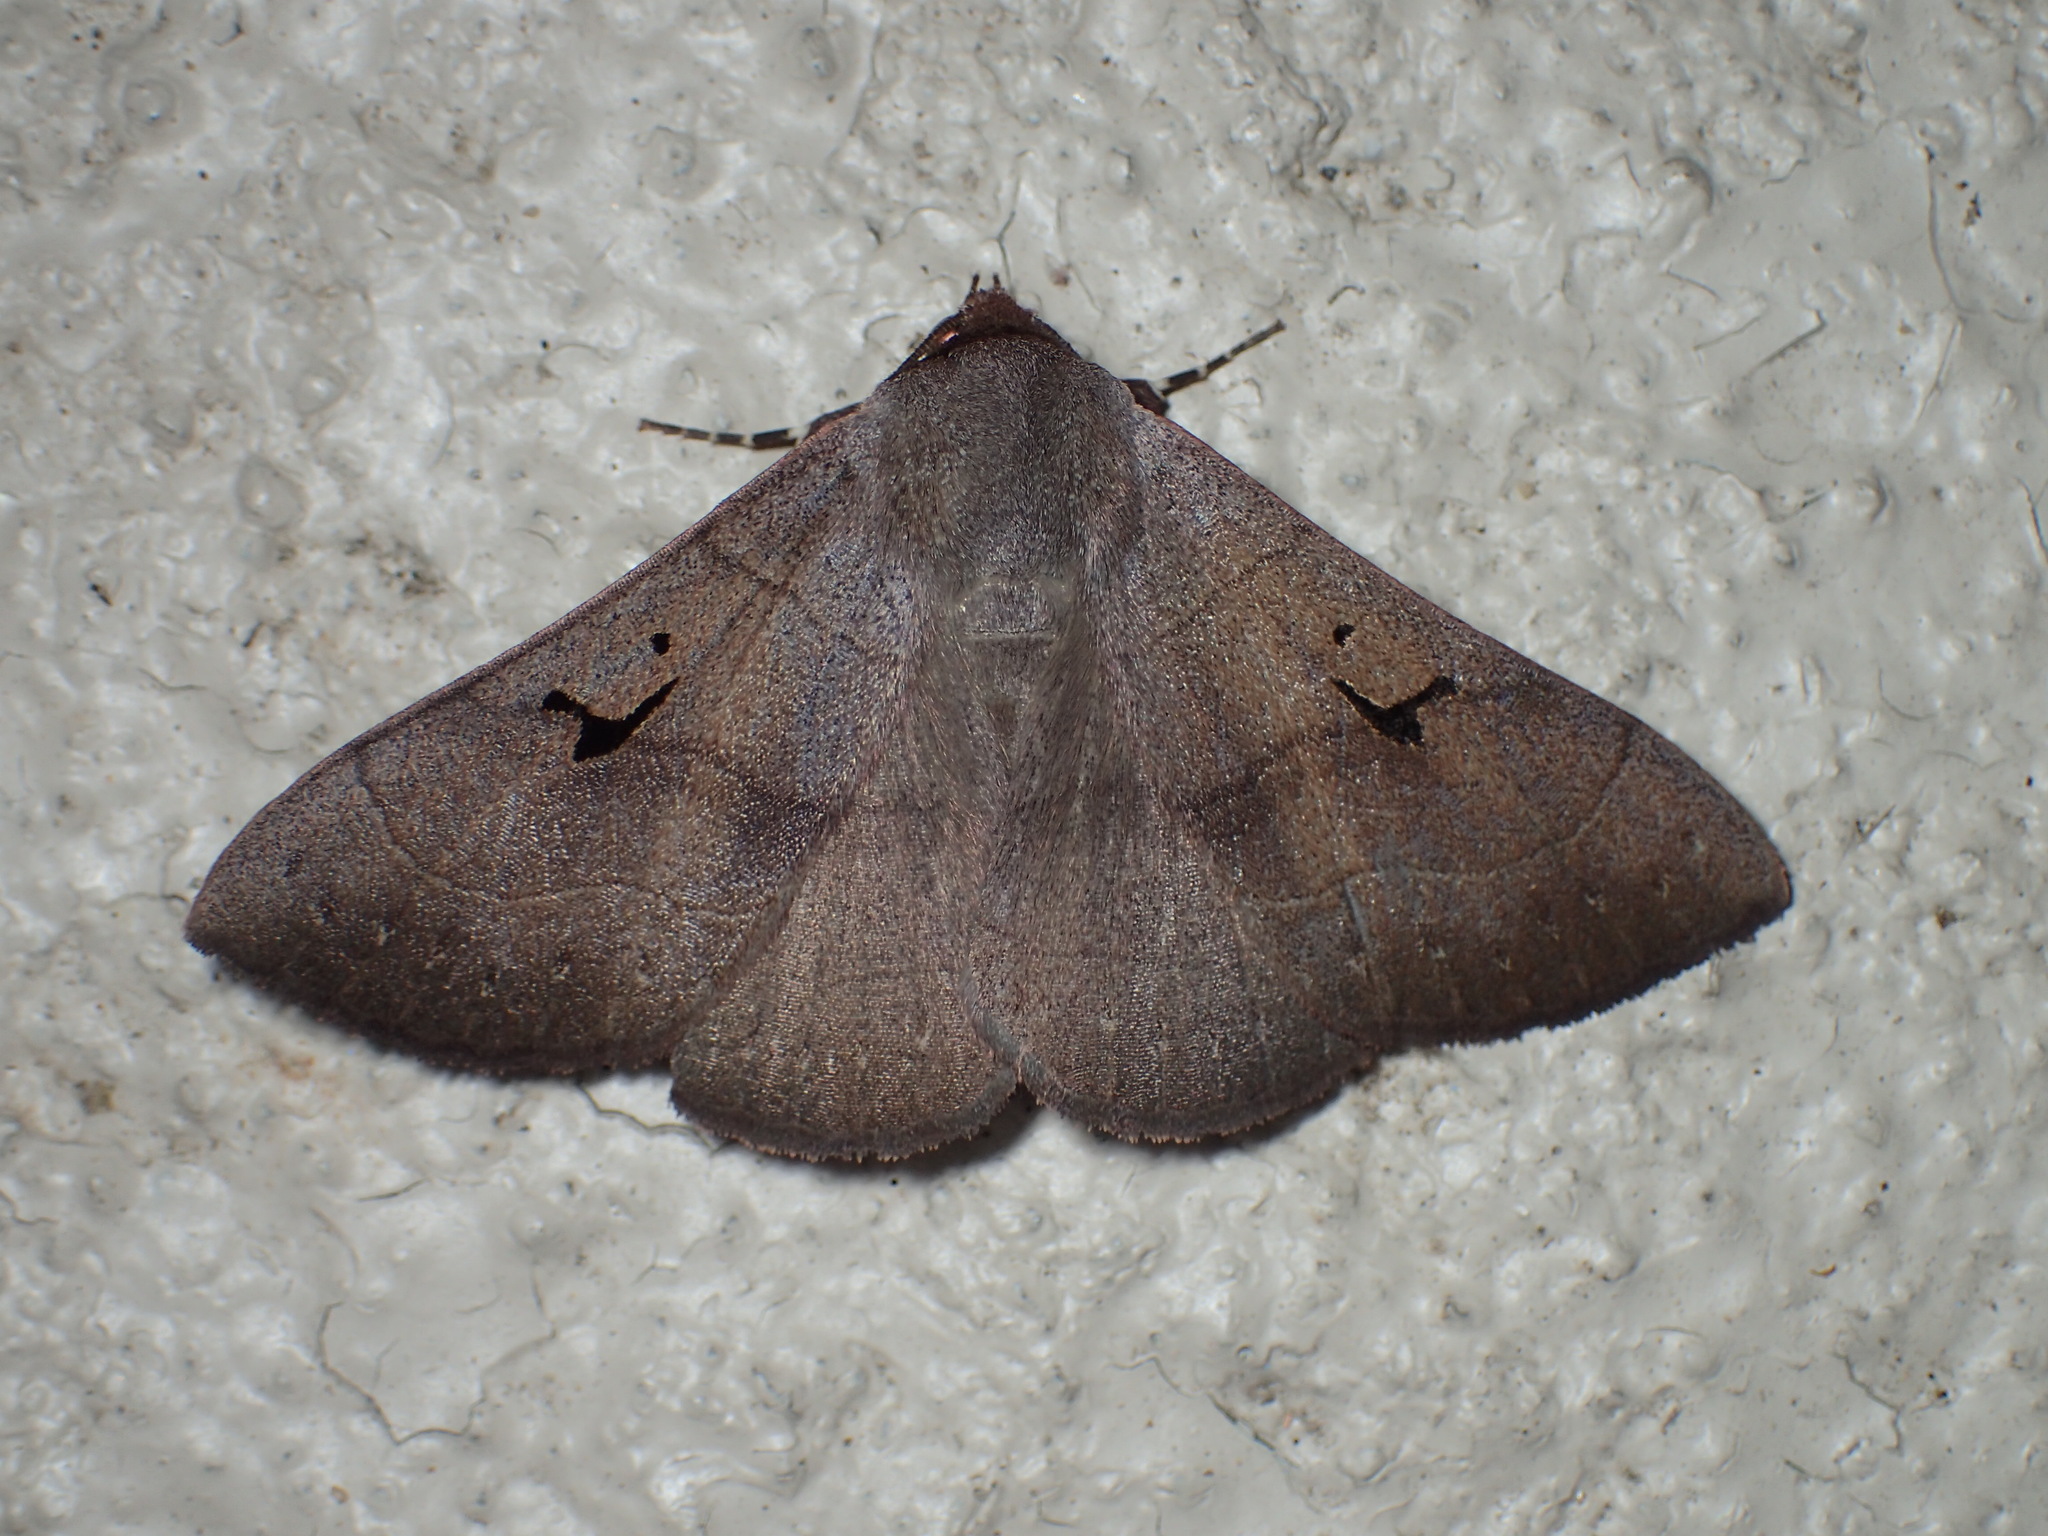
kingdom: Animalia
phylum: Arthropoda
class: Insecta
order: Lepidoptera
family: Erebidae
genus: Panopoda
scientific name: Panopoda carneicosta
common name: Brown panopoda moth
